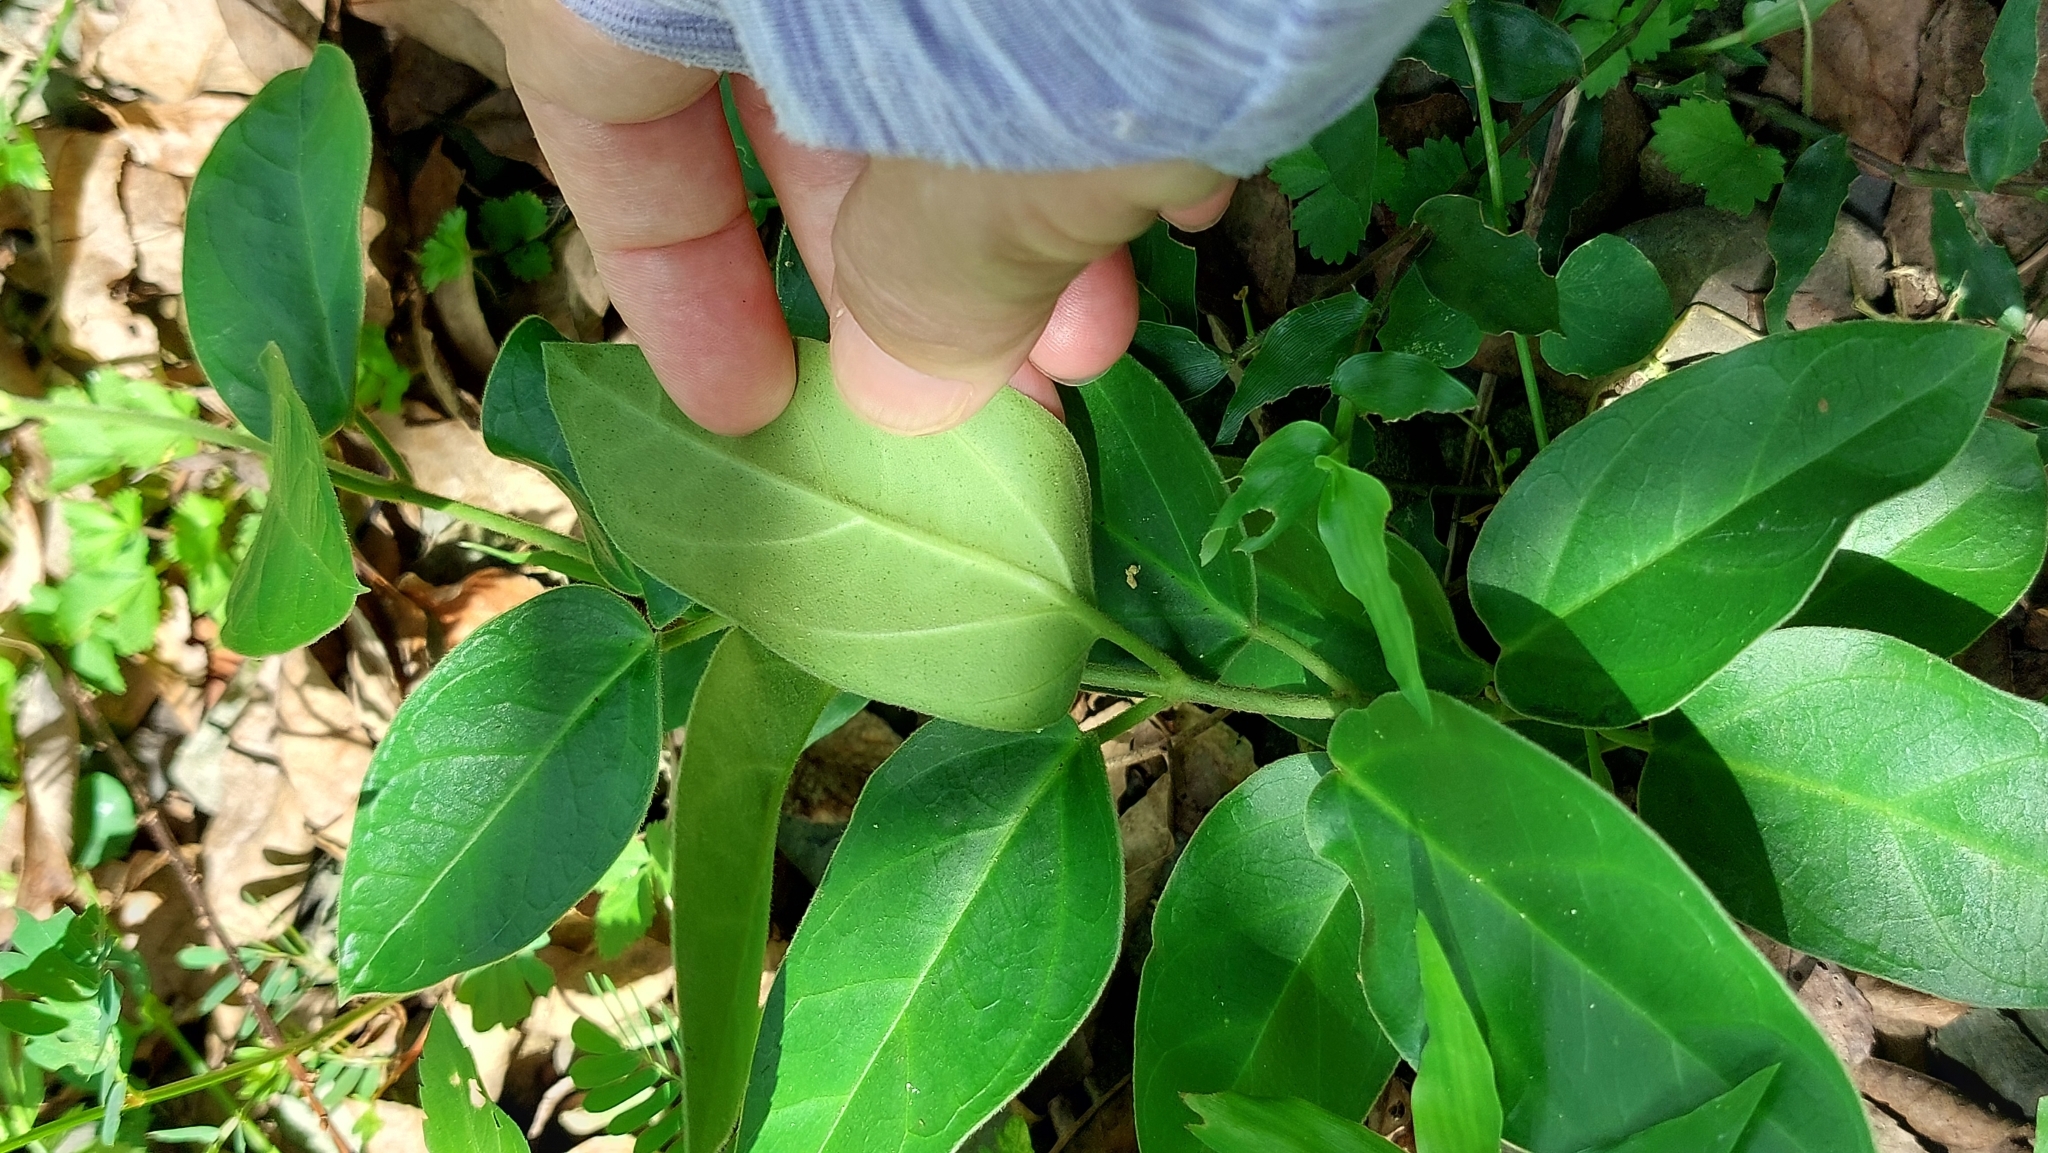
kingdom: Plantae
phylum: Tracheophyta
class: Magnoliopsida
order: Gentianales
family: Apocynaceae
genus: Vincetoxicum
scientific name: Vincetoxicum hirsutum
